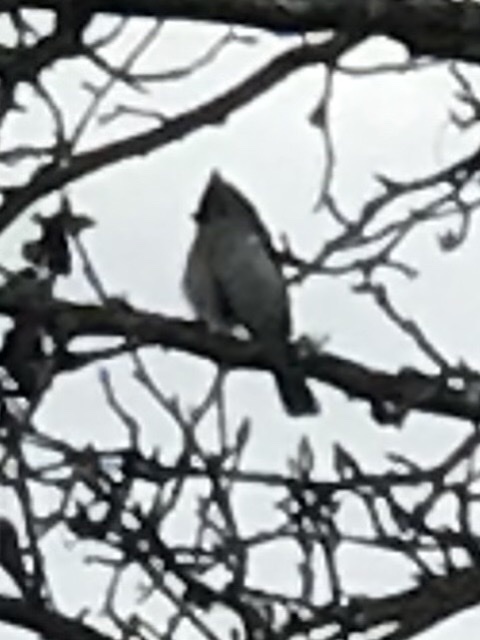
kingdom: Animalia
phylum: Chordata
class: Aves
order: Passeriformes
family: Paridae
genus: Baeolophus
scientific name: Baeolophus bicolor
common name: Tufted titmouse
